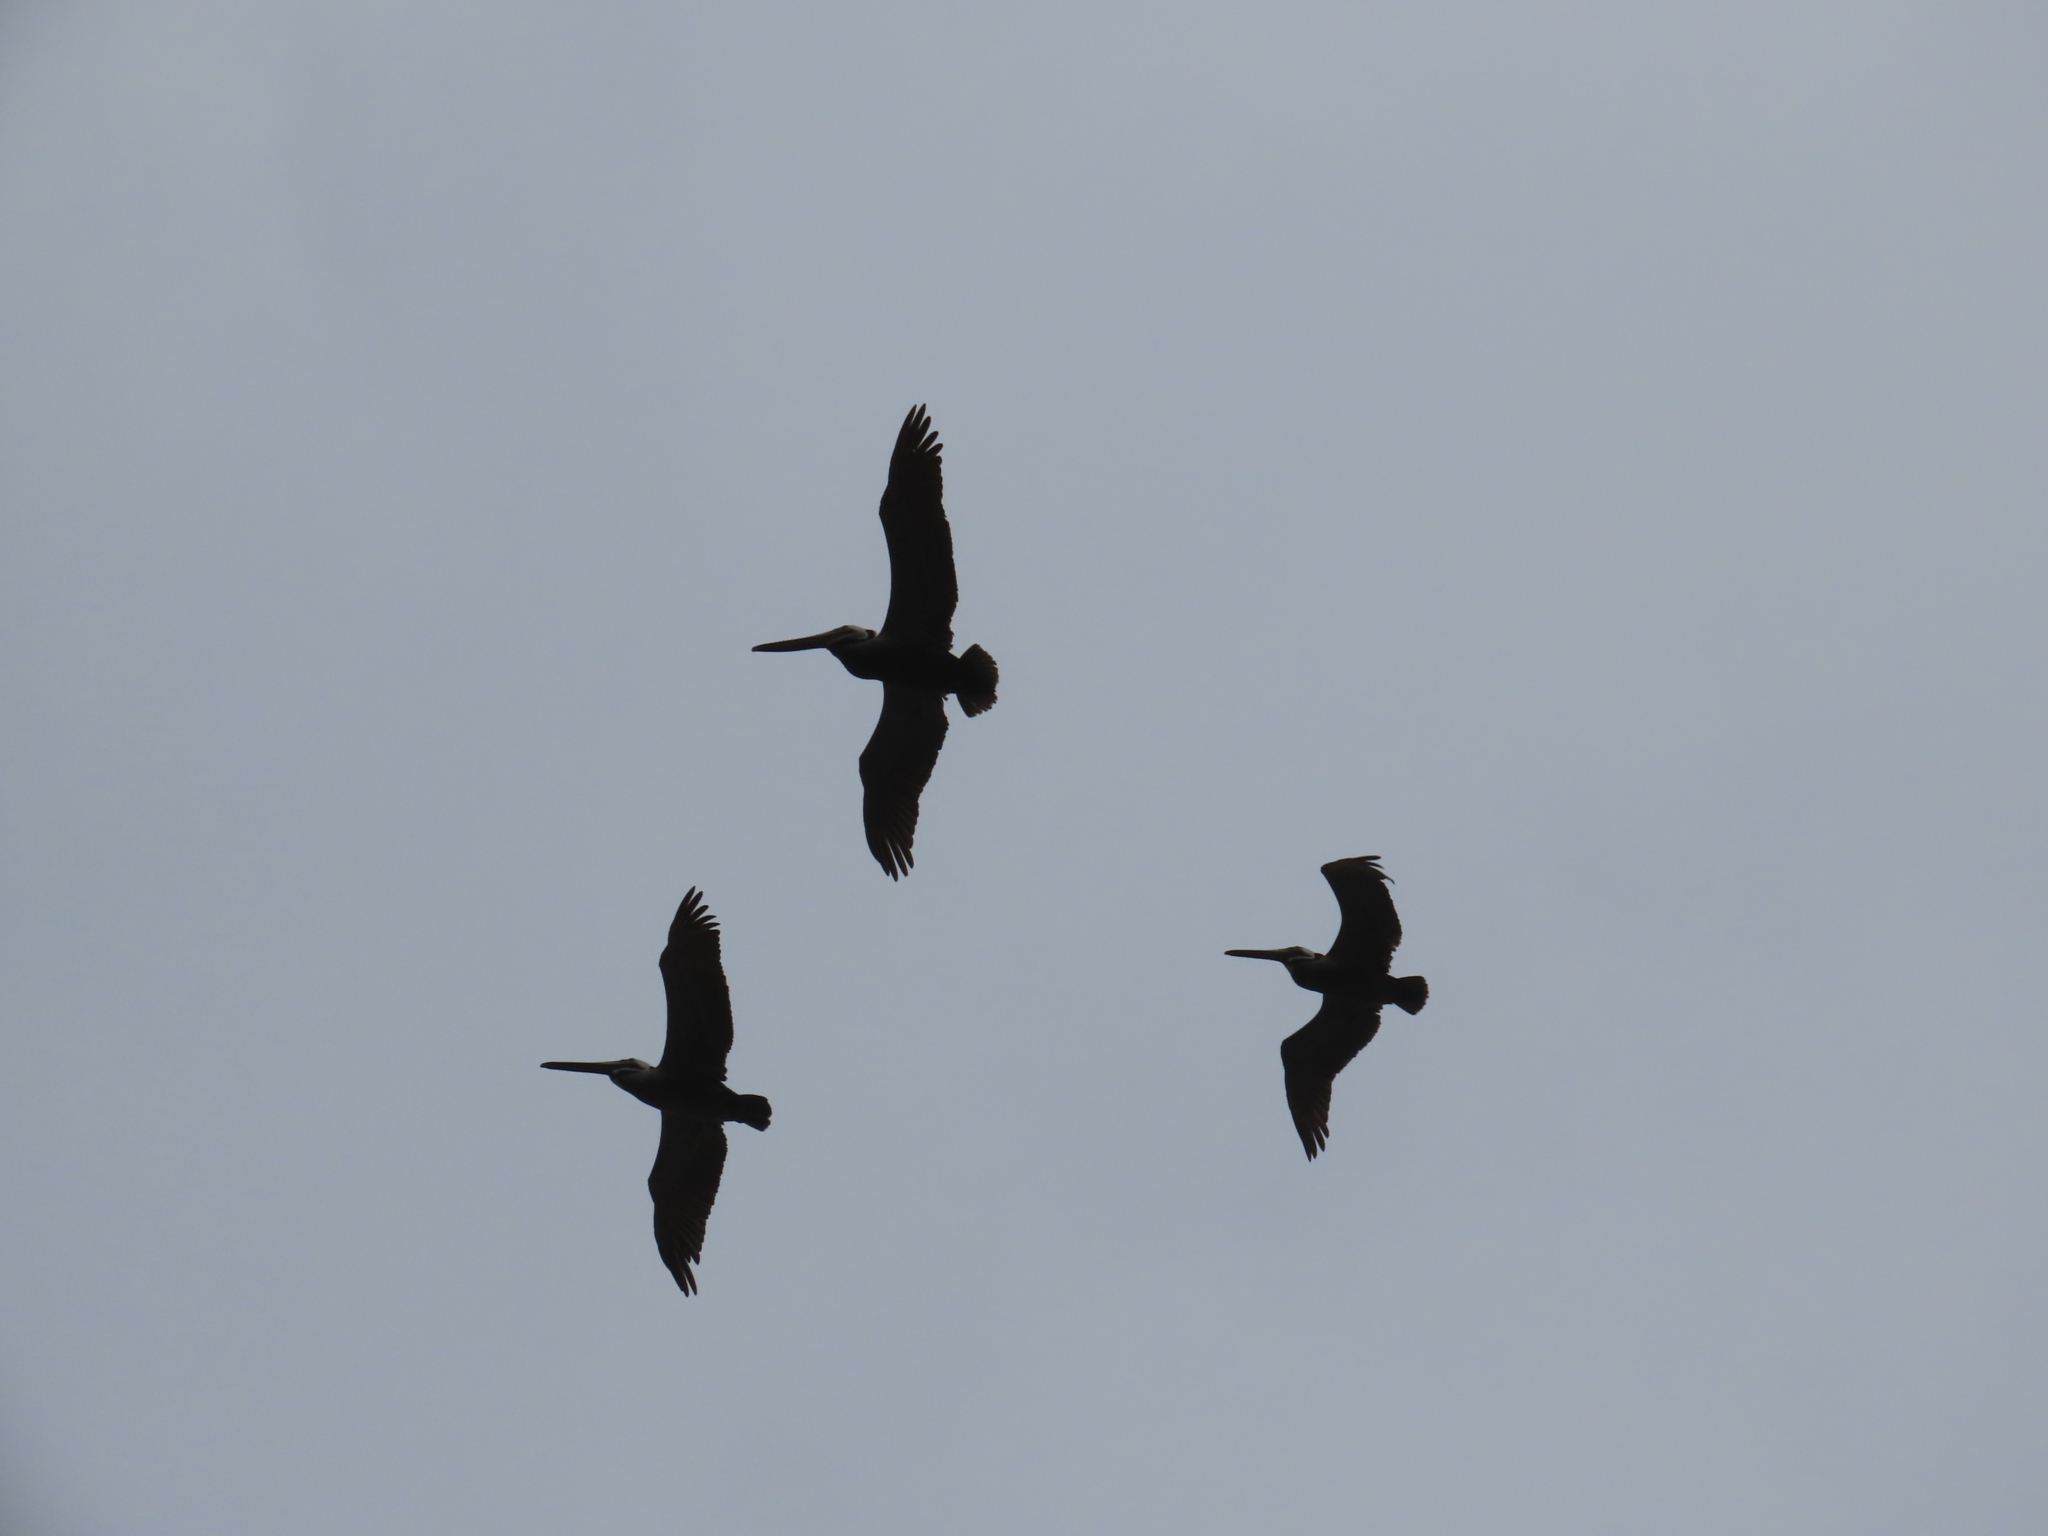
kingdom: Animalia
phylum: Chordata
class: Aves
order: Pelecaniformes
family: Pelecanidae
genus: Pelecanus
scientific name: Pelecanus occidentalis
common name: Brown pelican
